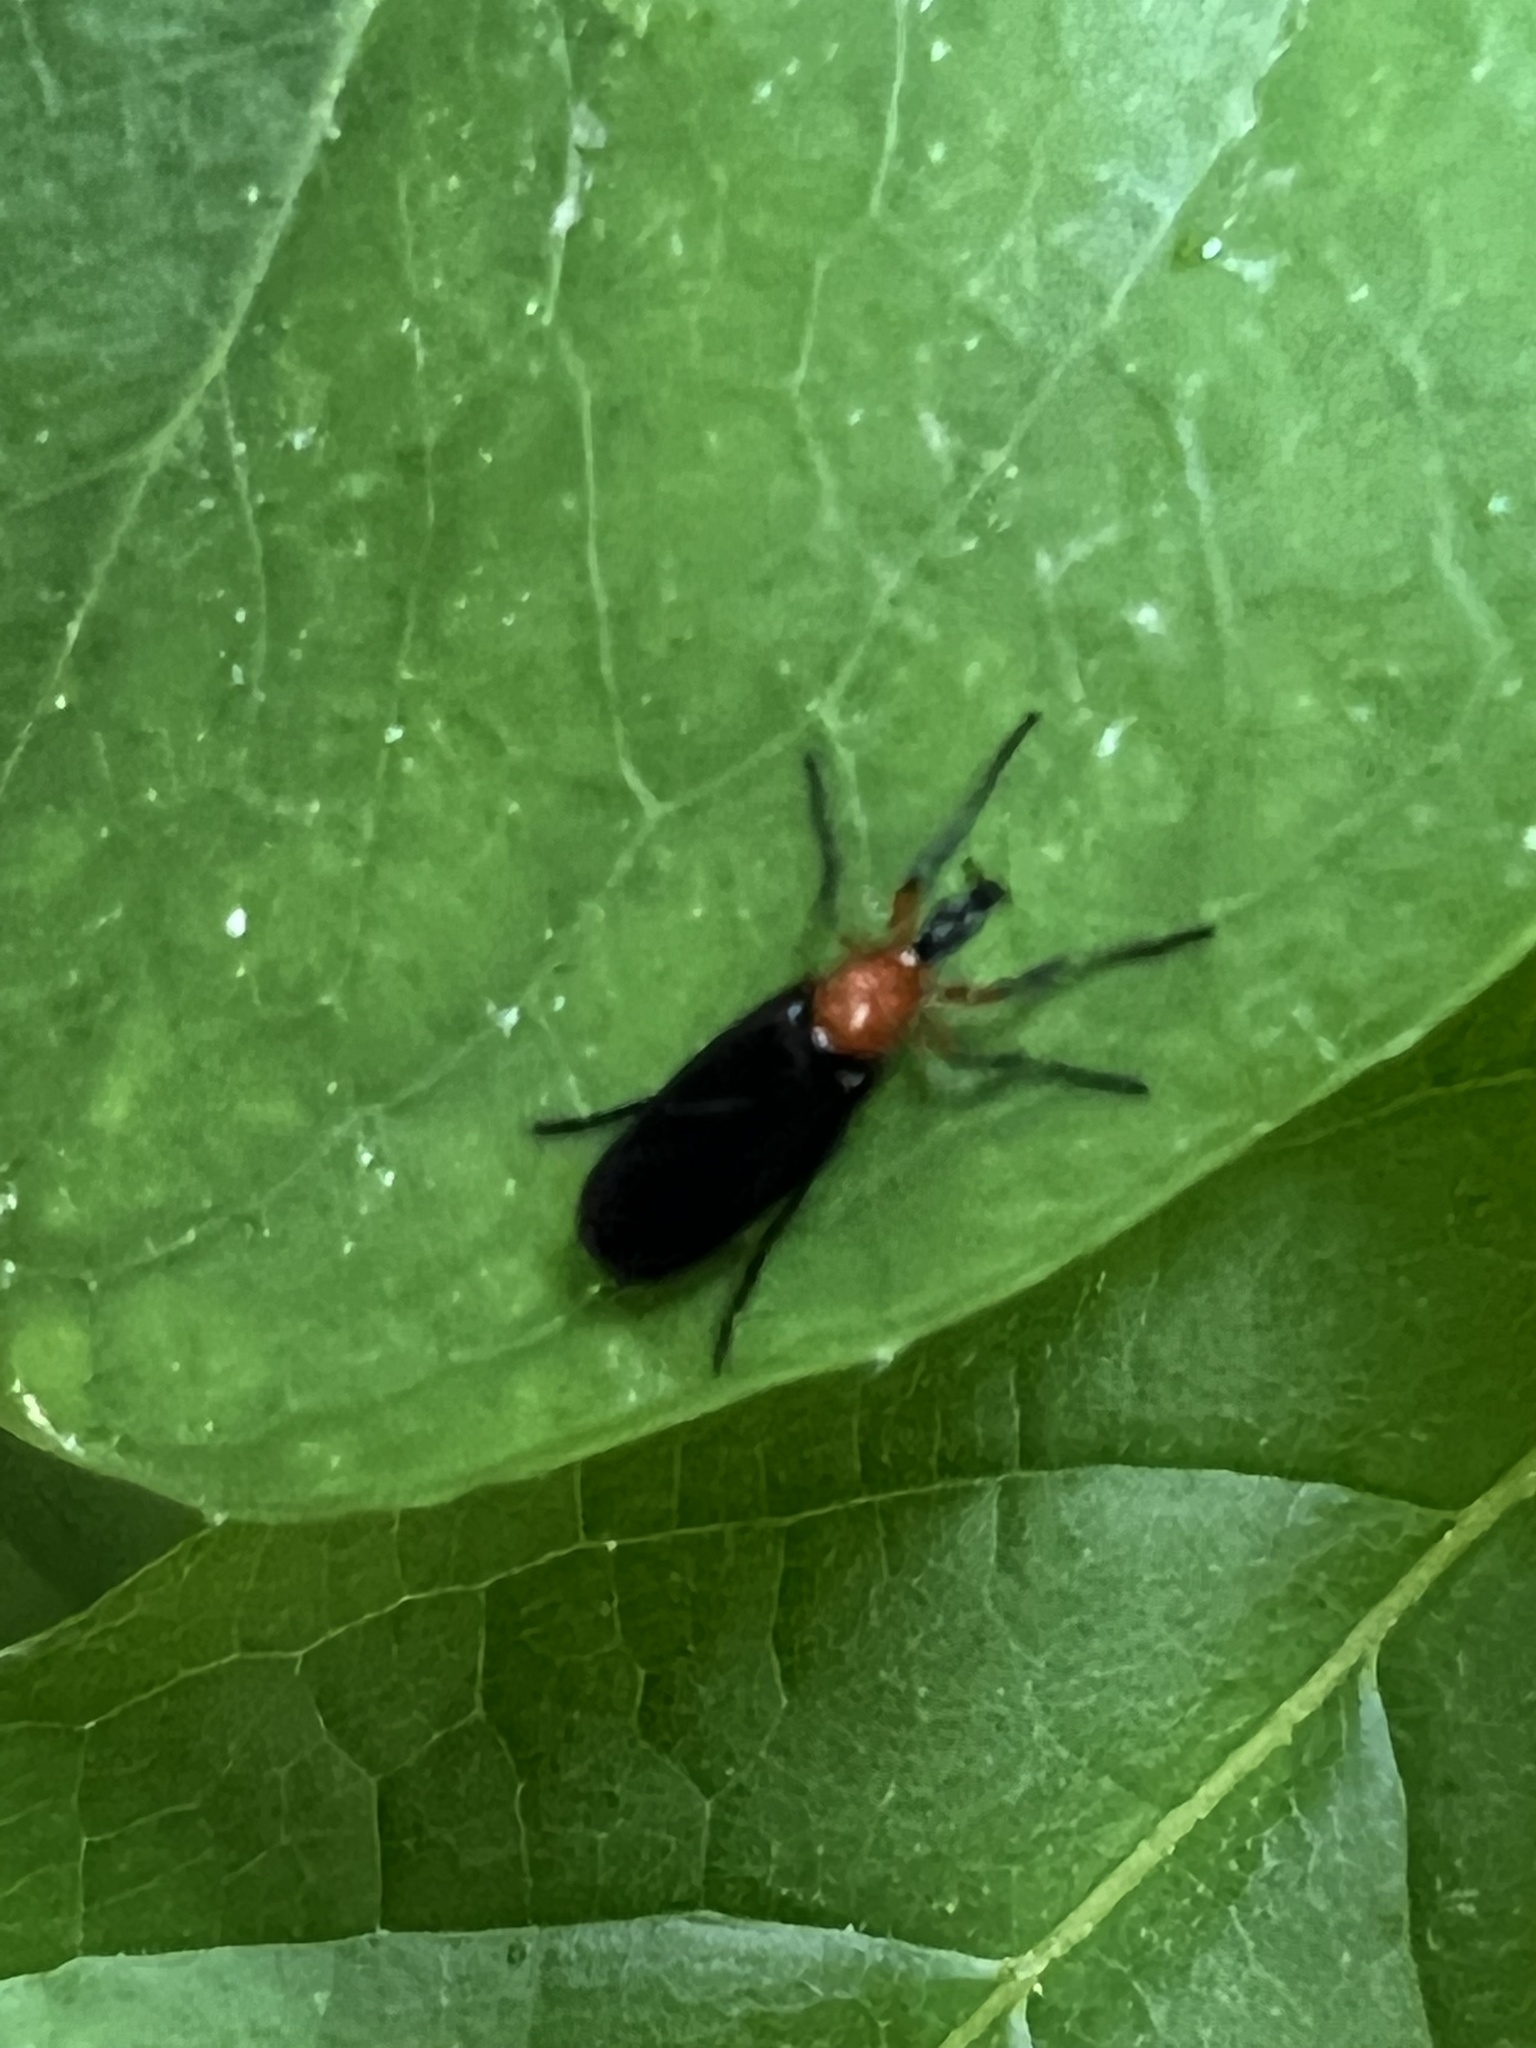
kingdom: Animalia
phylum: Arthropoda
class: Insecta
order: Diptera
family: Bibionidae
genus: Dilophus
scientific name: Dilophus spinipes
